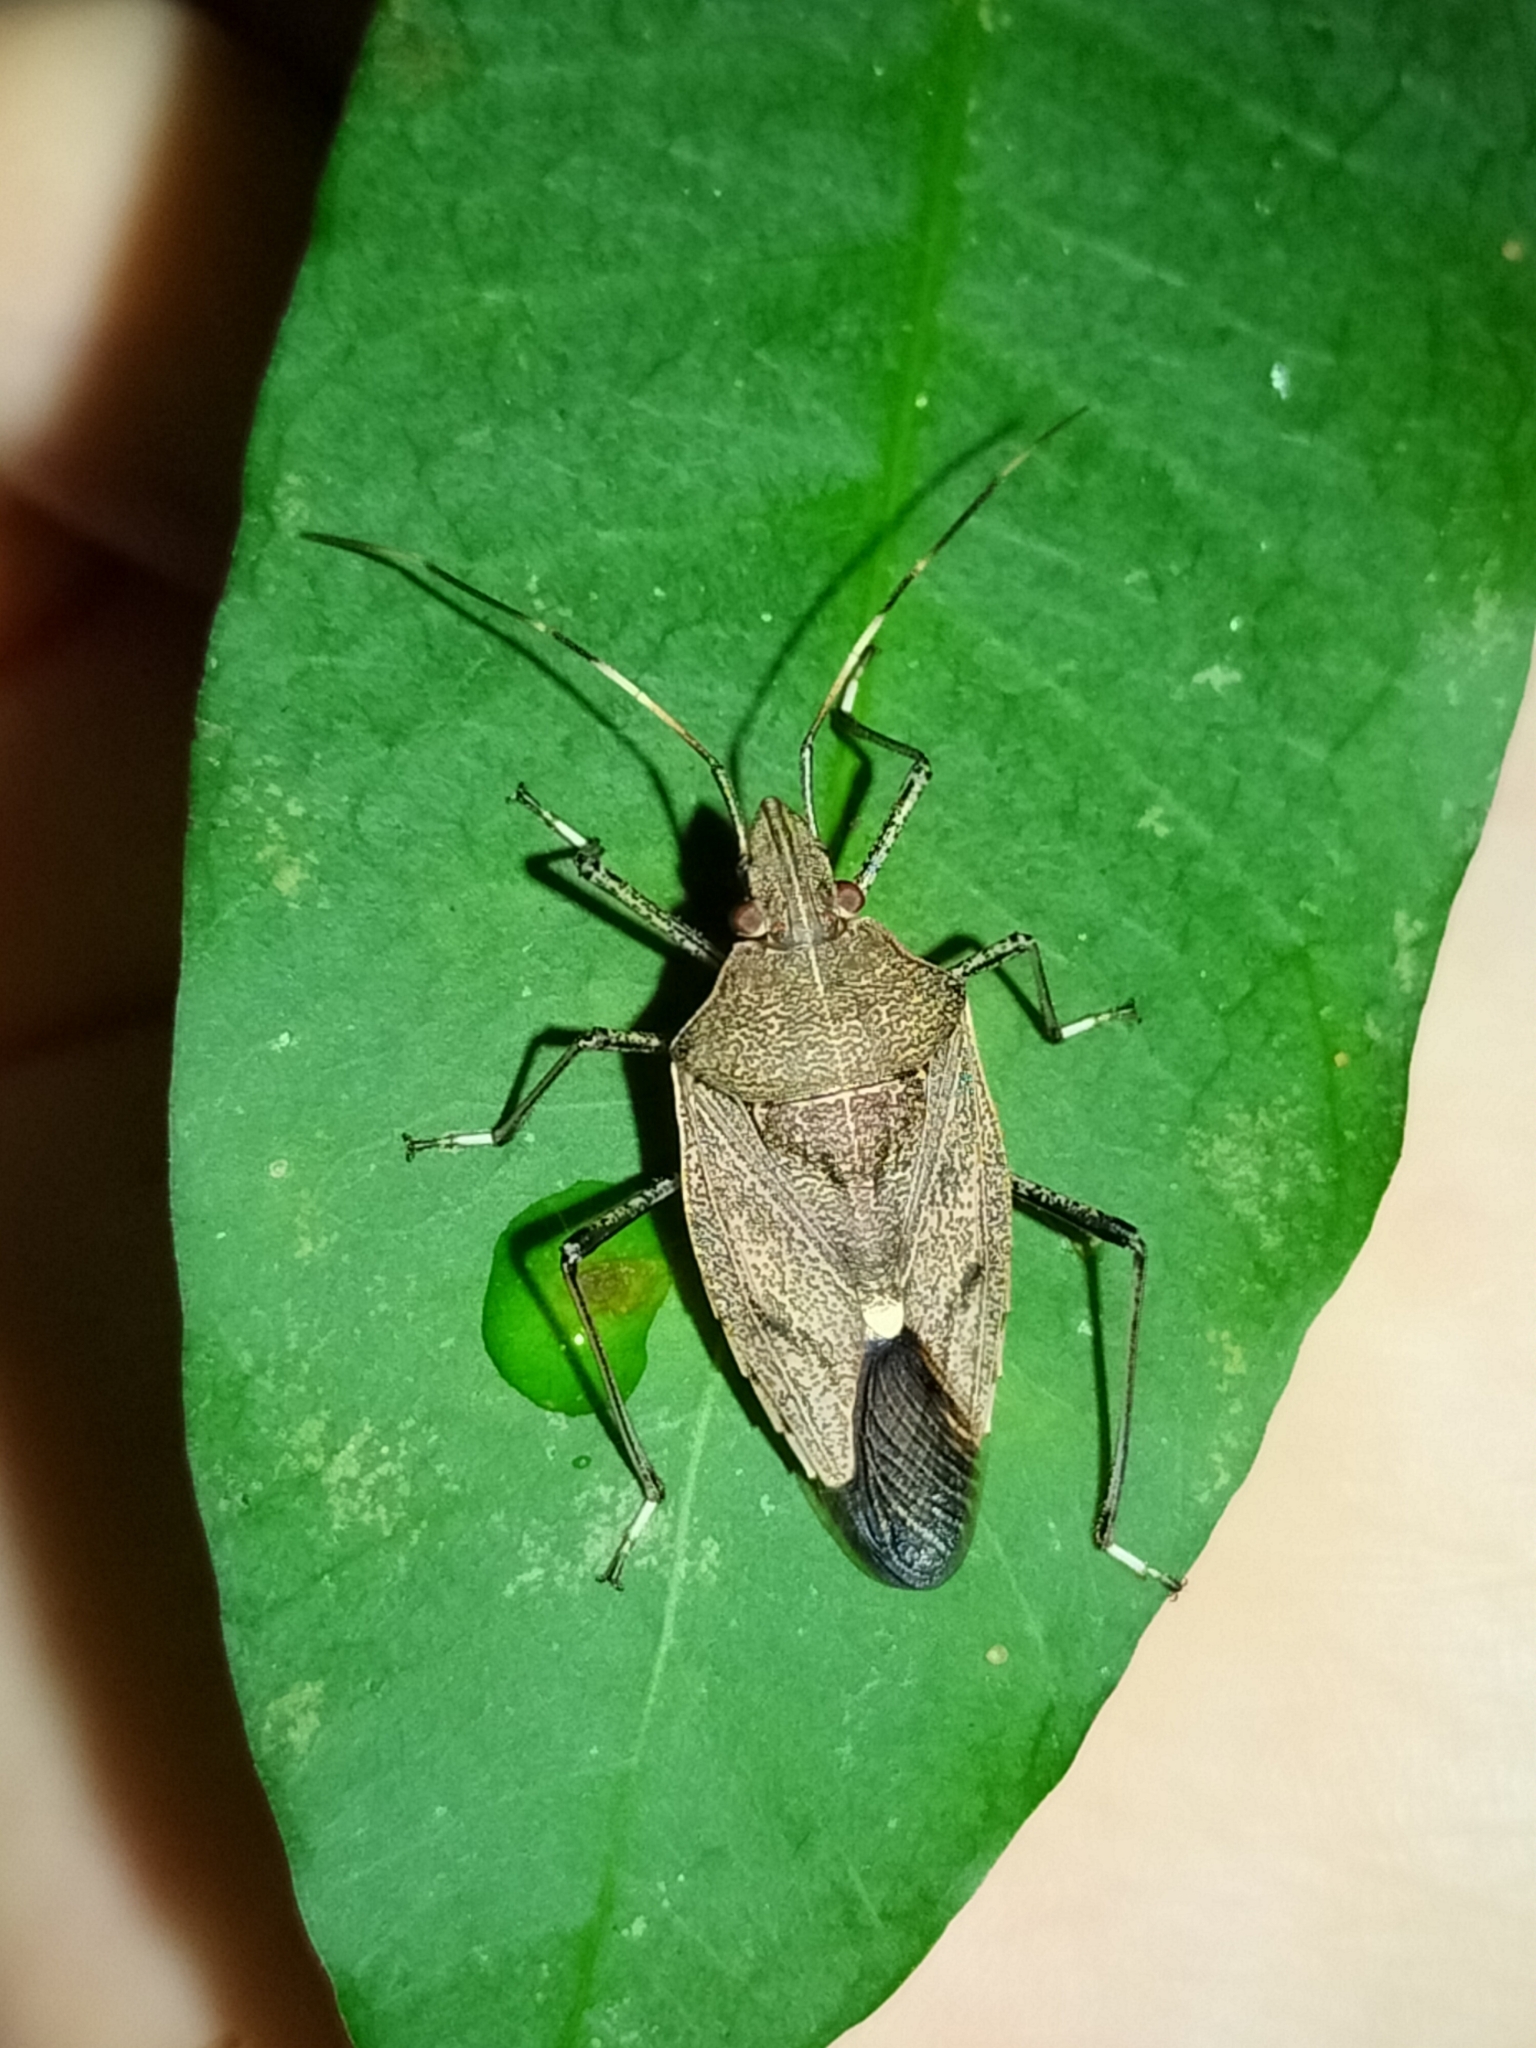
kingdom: Animalia
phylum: Arthropoda
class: Insecta
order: Hemiptera
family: Pentatomidae
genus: Poecilometis
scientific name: Poecilometis
